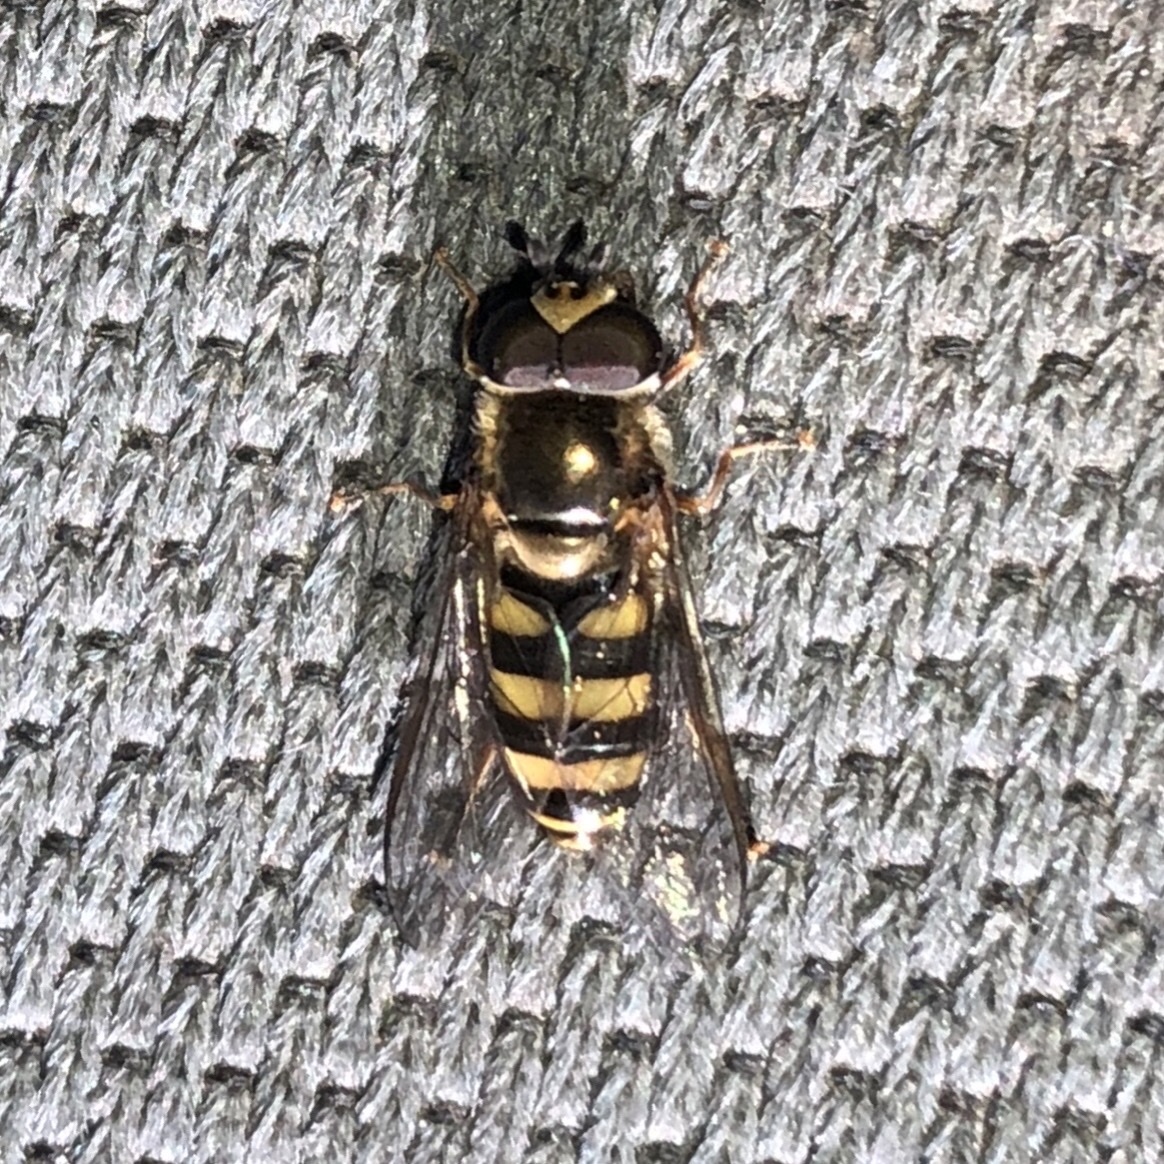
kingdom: Animalia
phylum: Arthropoda
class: Insecta
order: Diptera
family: Syrphidae
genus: Eupeodes
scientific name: Eupeodes
